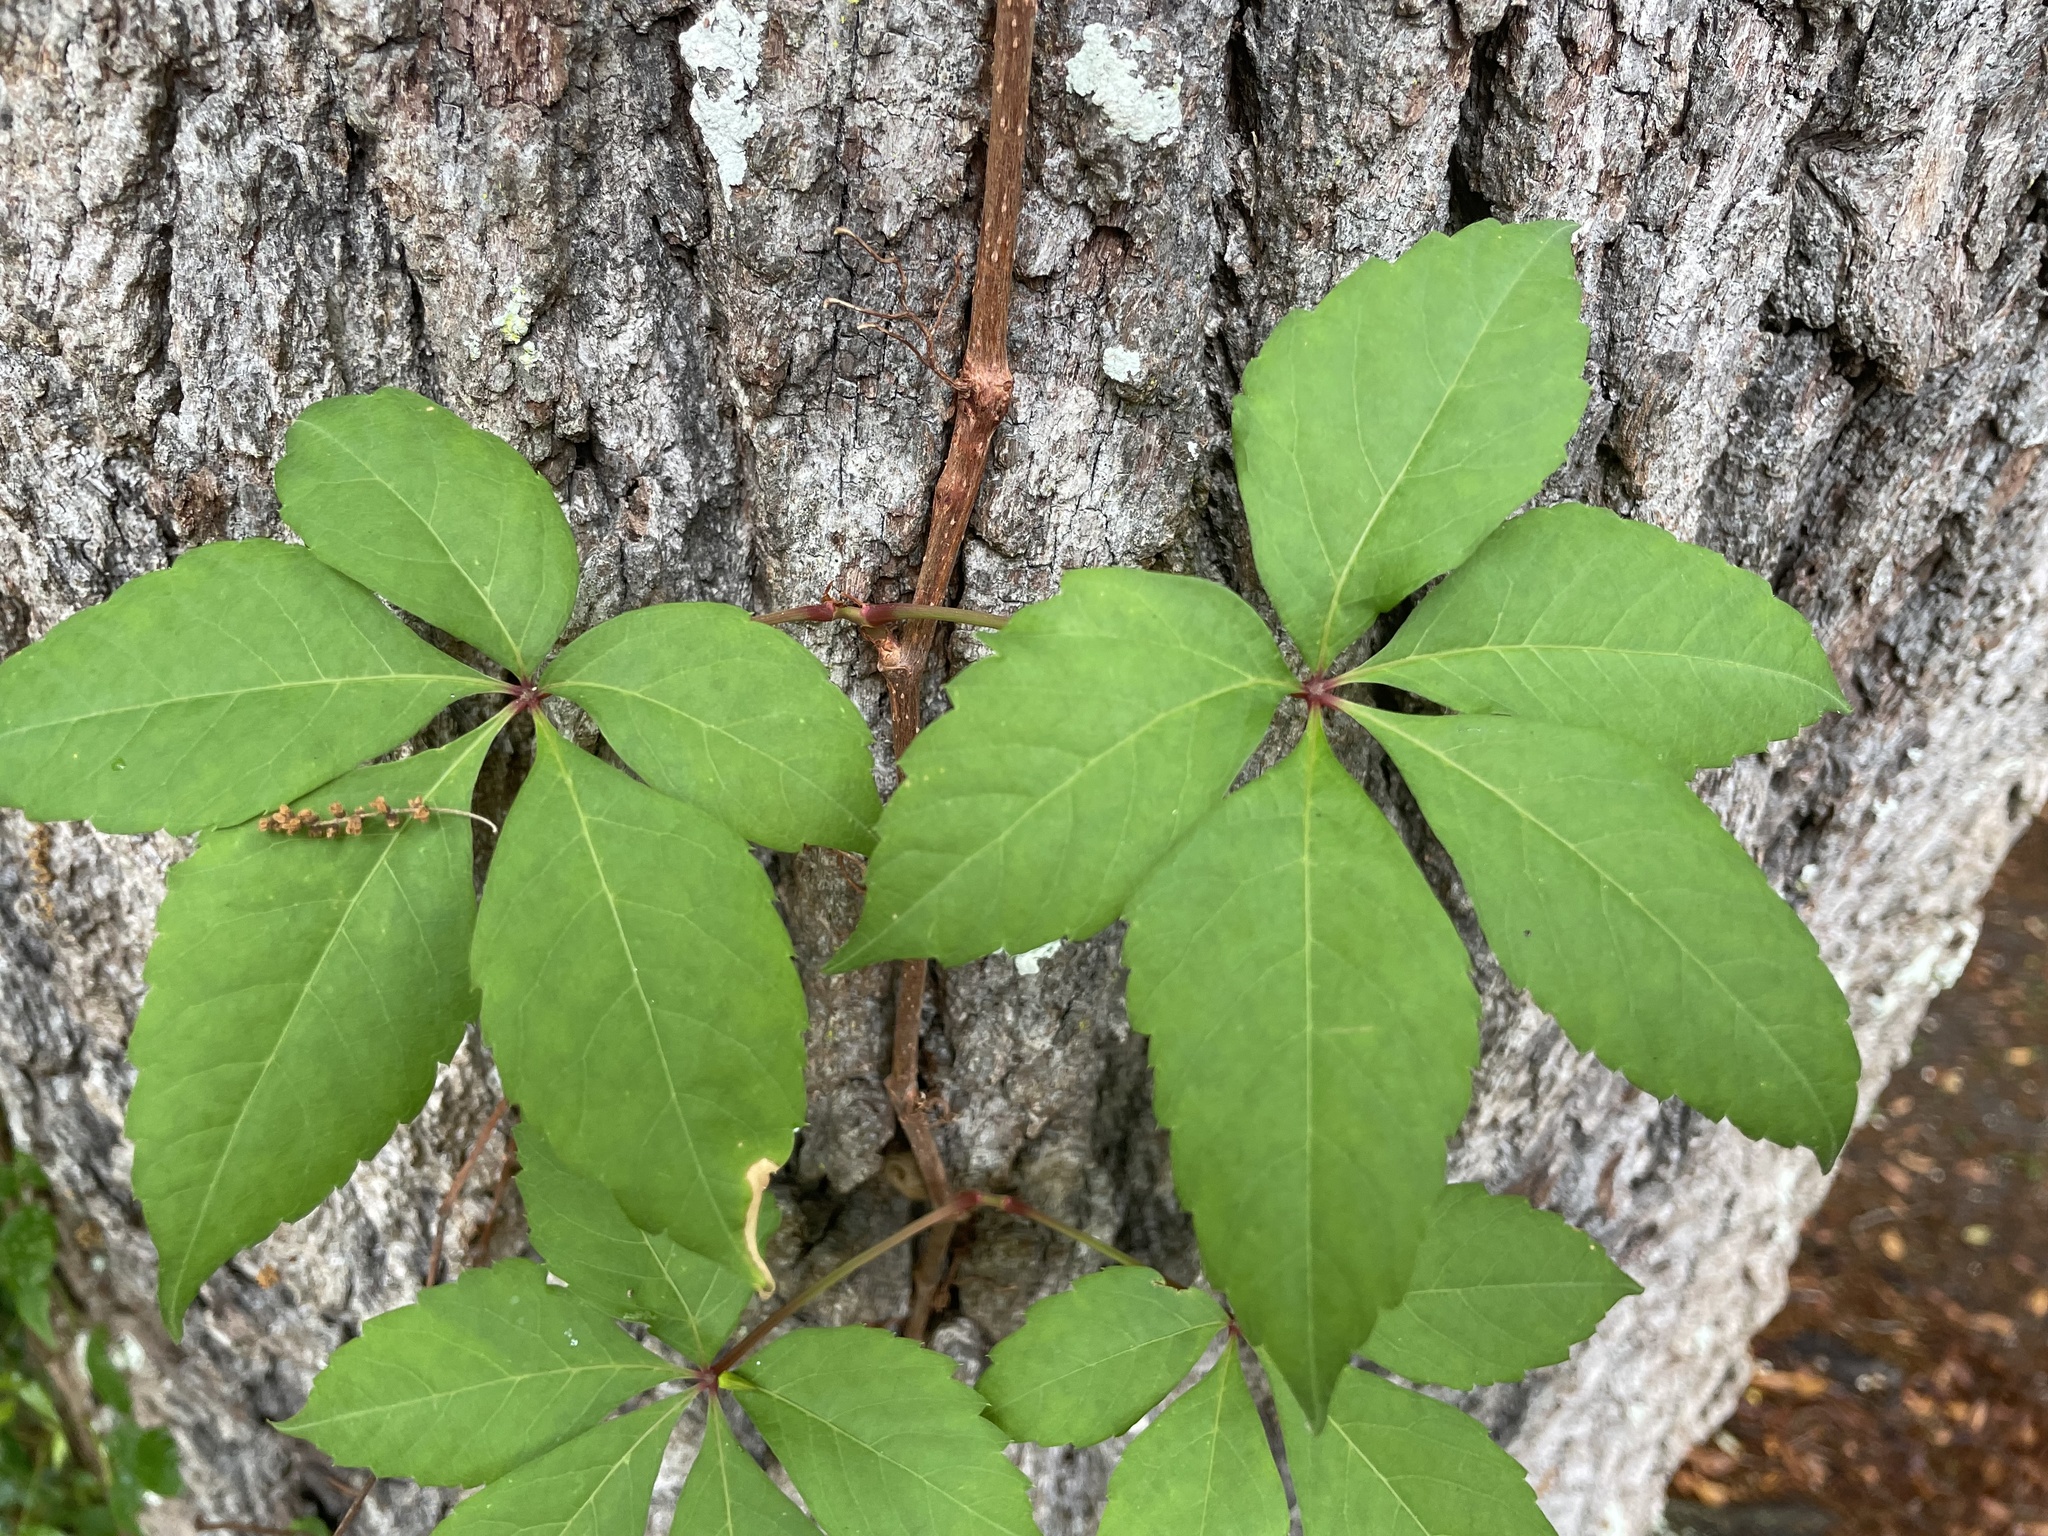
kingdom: Plantae
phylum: Tracheophyta
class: Magnoliopsida
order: Vitales
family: Vitaceae
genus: Parthenocissus
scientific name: Parthenocissus quinquefolia
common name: Virginia-creeper
